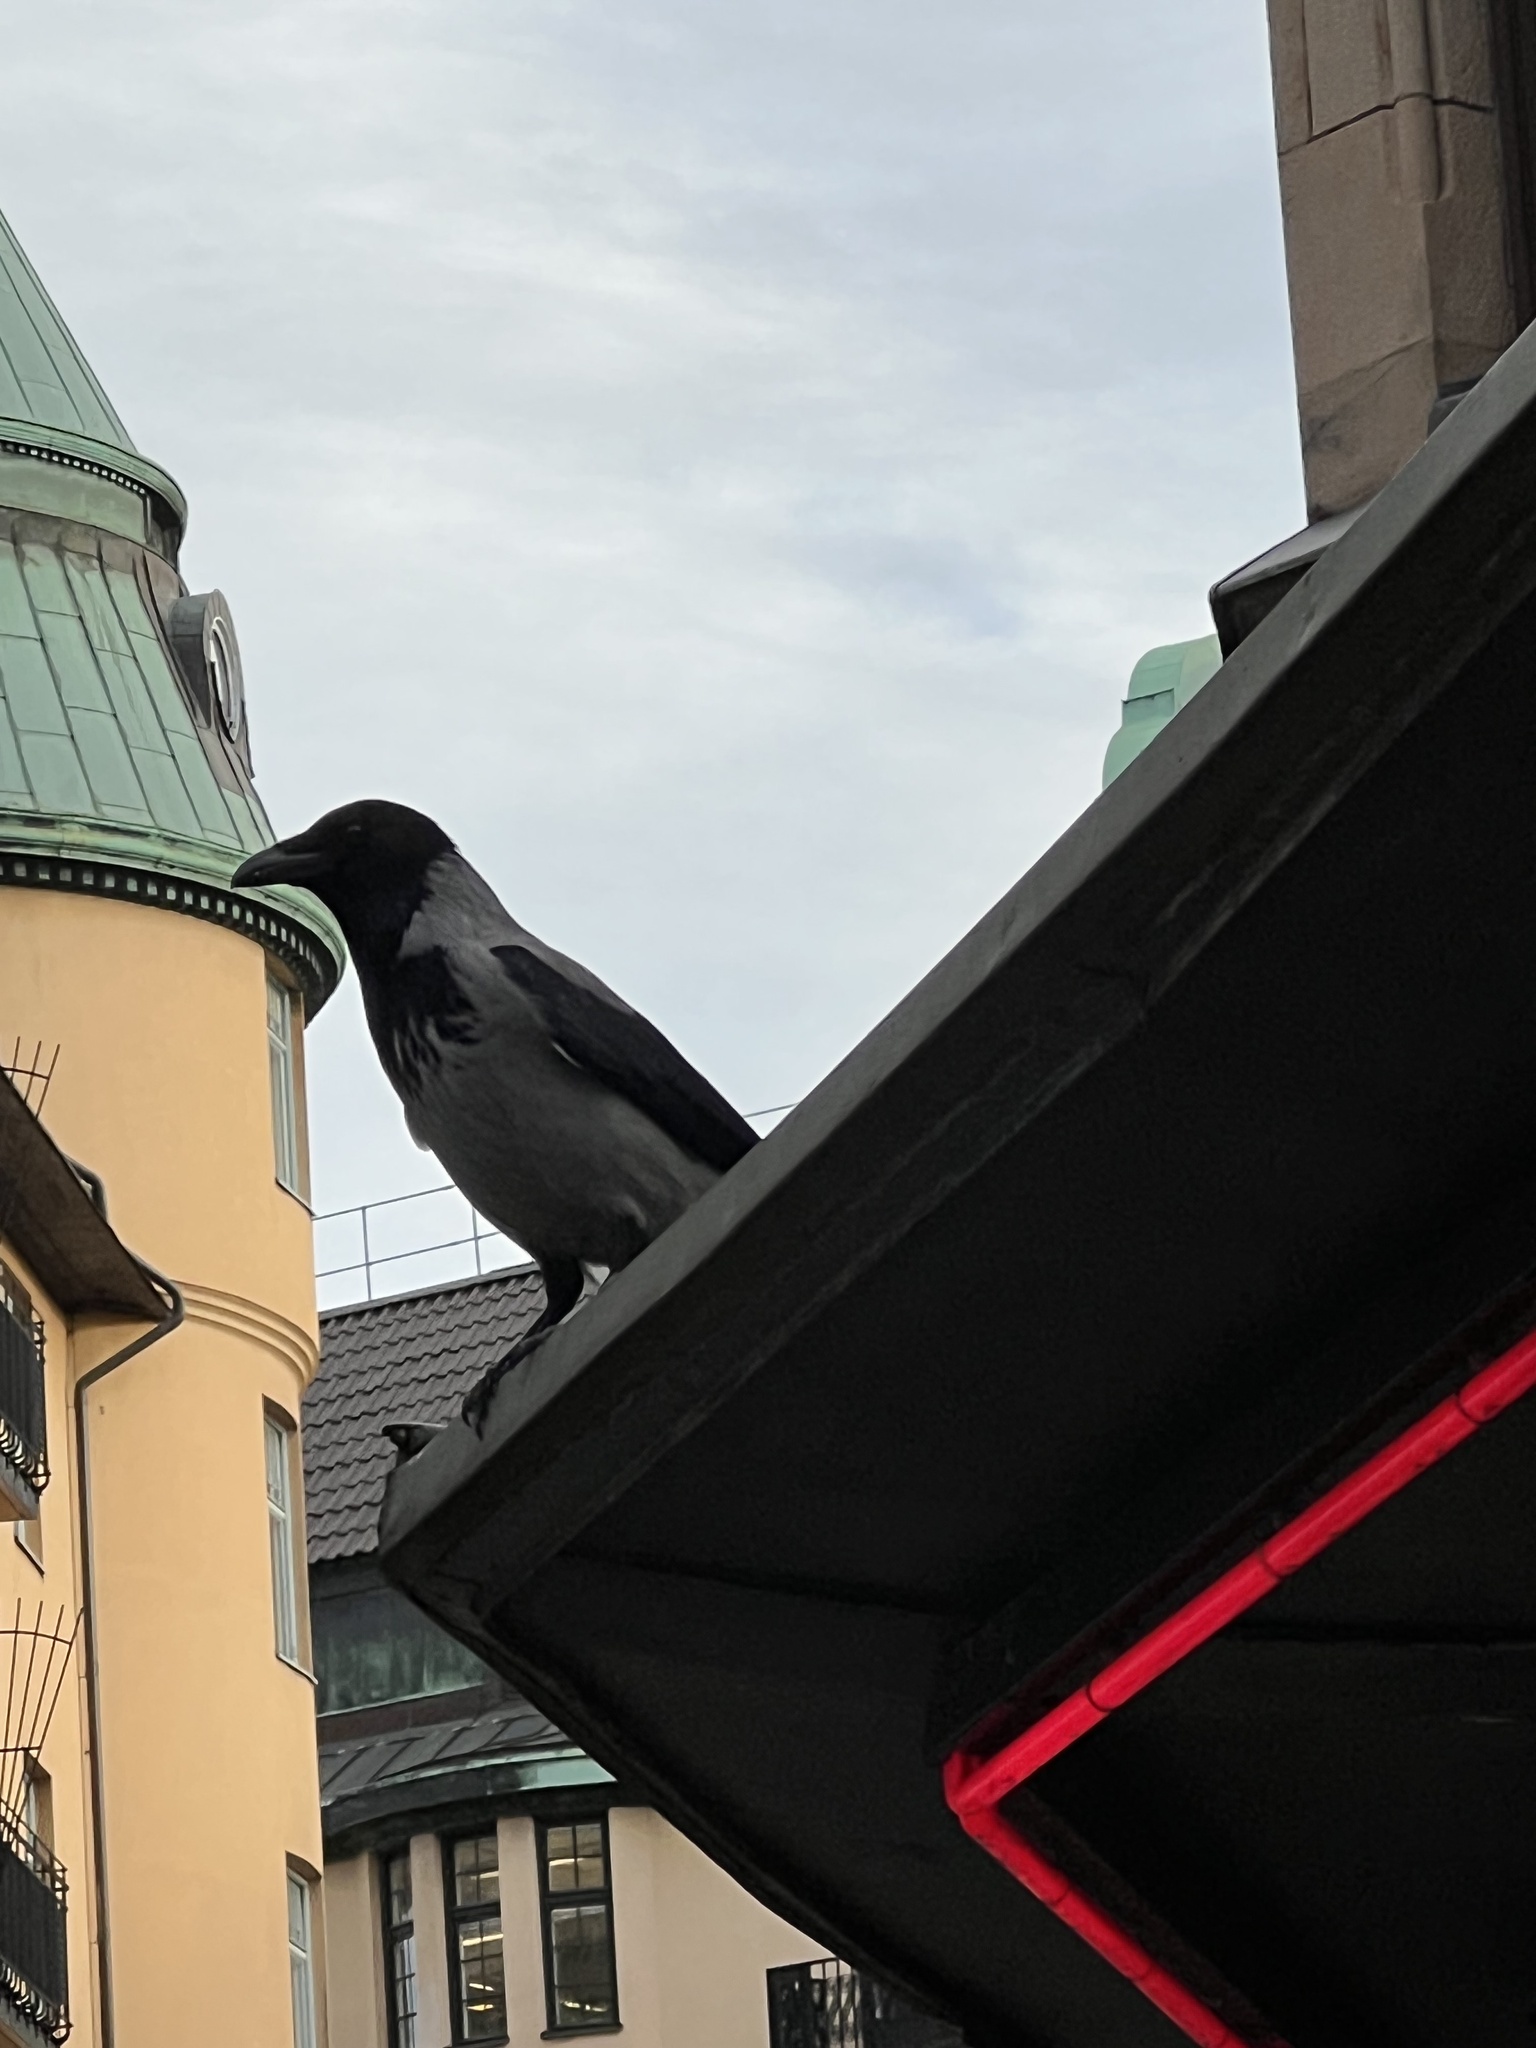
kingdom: Animalia
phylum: Chordata
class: Aves
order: Passeriformes
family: Corvidae
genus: Corvus
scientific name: Corvus cornix
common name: Hooded crow
